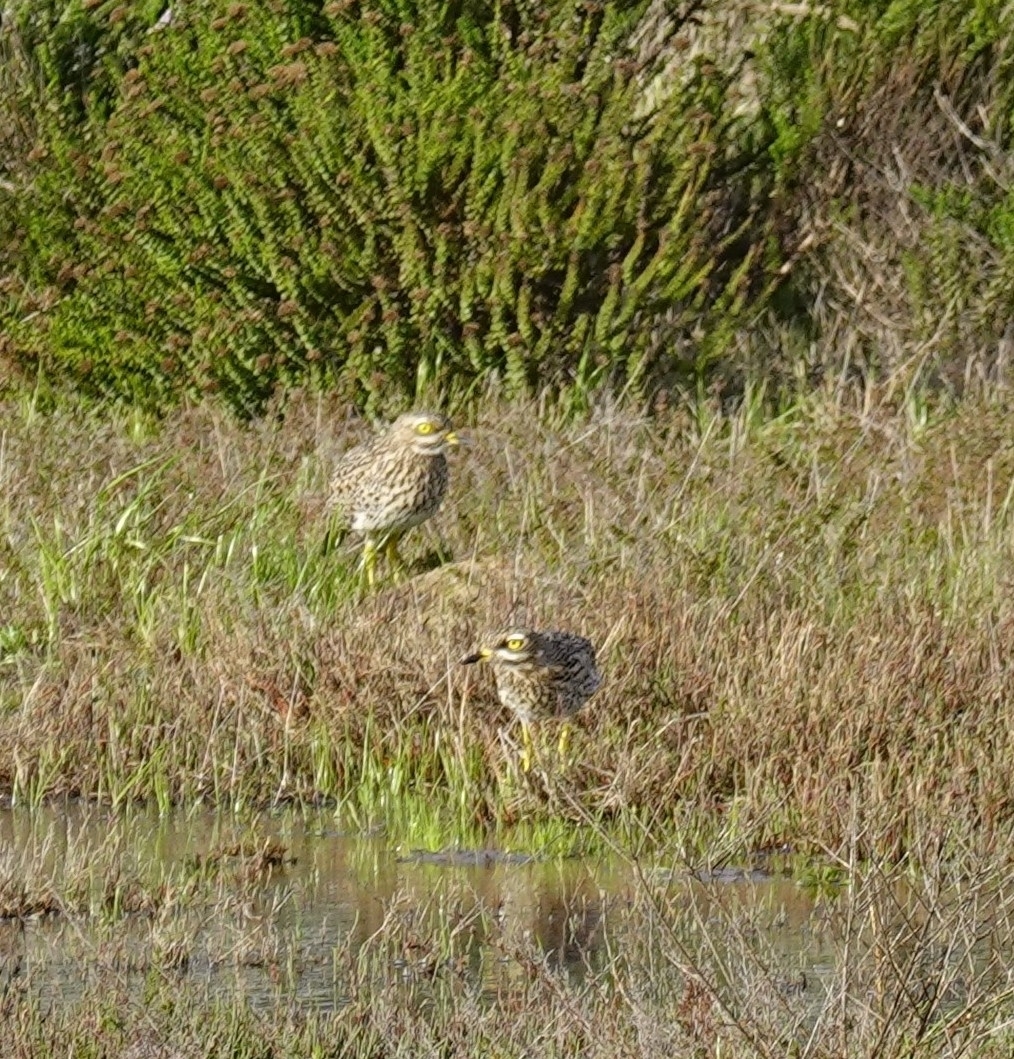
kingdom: Animalia
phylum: Chordata
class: Aves
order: Charadriiformes
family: Burhinidae
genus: Burhinus
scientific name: Burhinus capensis
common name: Spotted thick-knee
